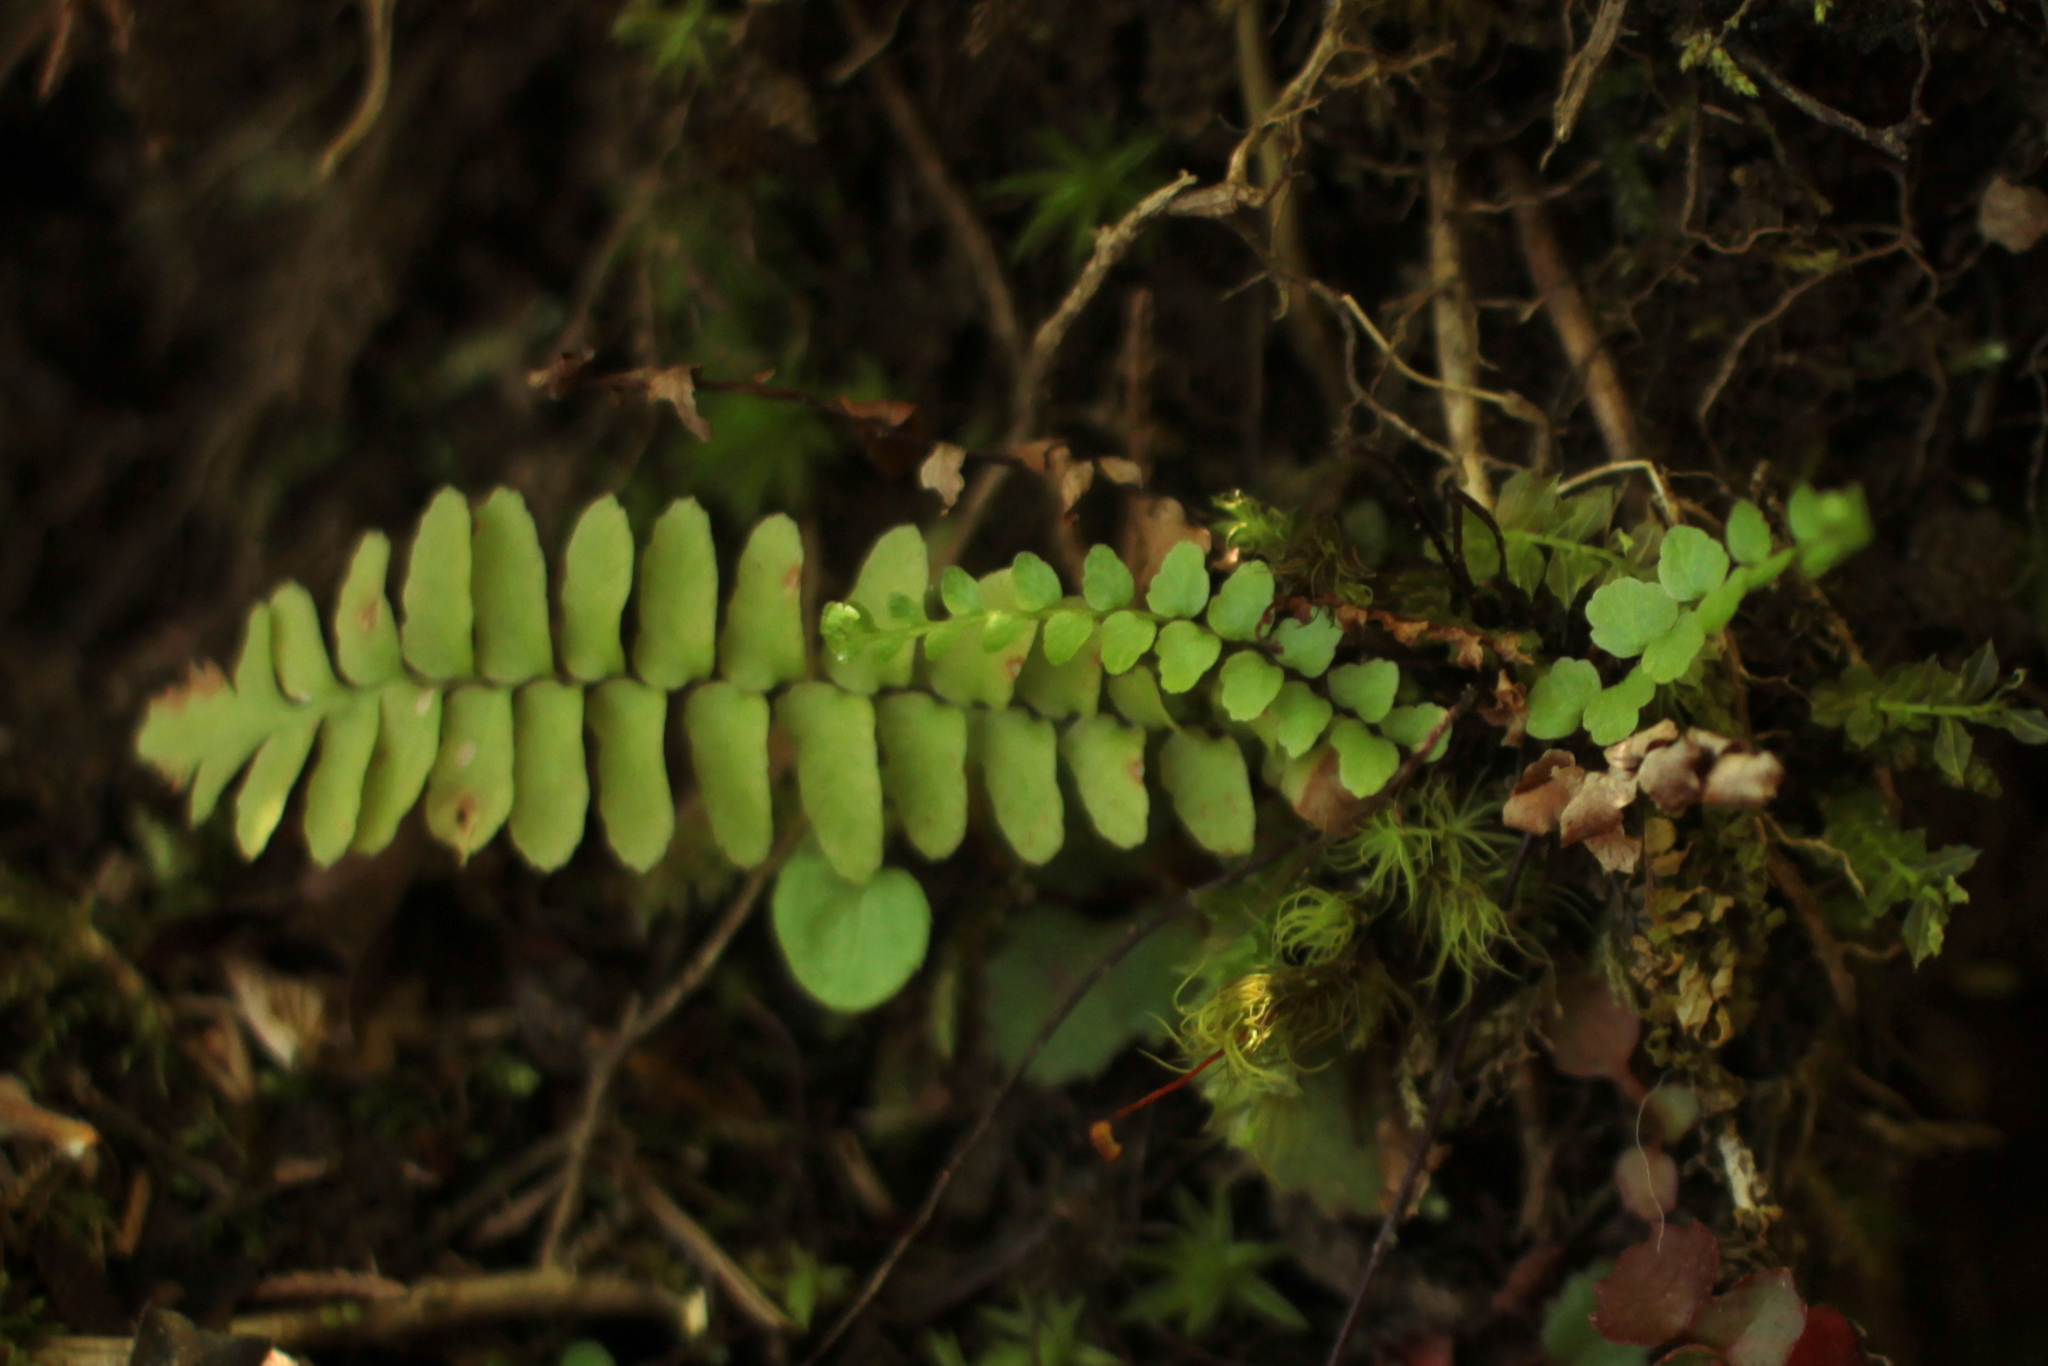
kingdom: Plantae
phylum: Tracheophyta
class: Polypodiopsida
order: Polypodiales
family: Aspleniaceae
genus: Asplenium
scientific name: Asplenium platyneuron
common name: Ebony spleenwort
